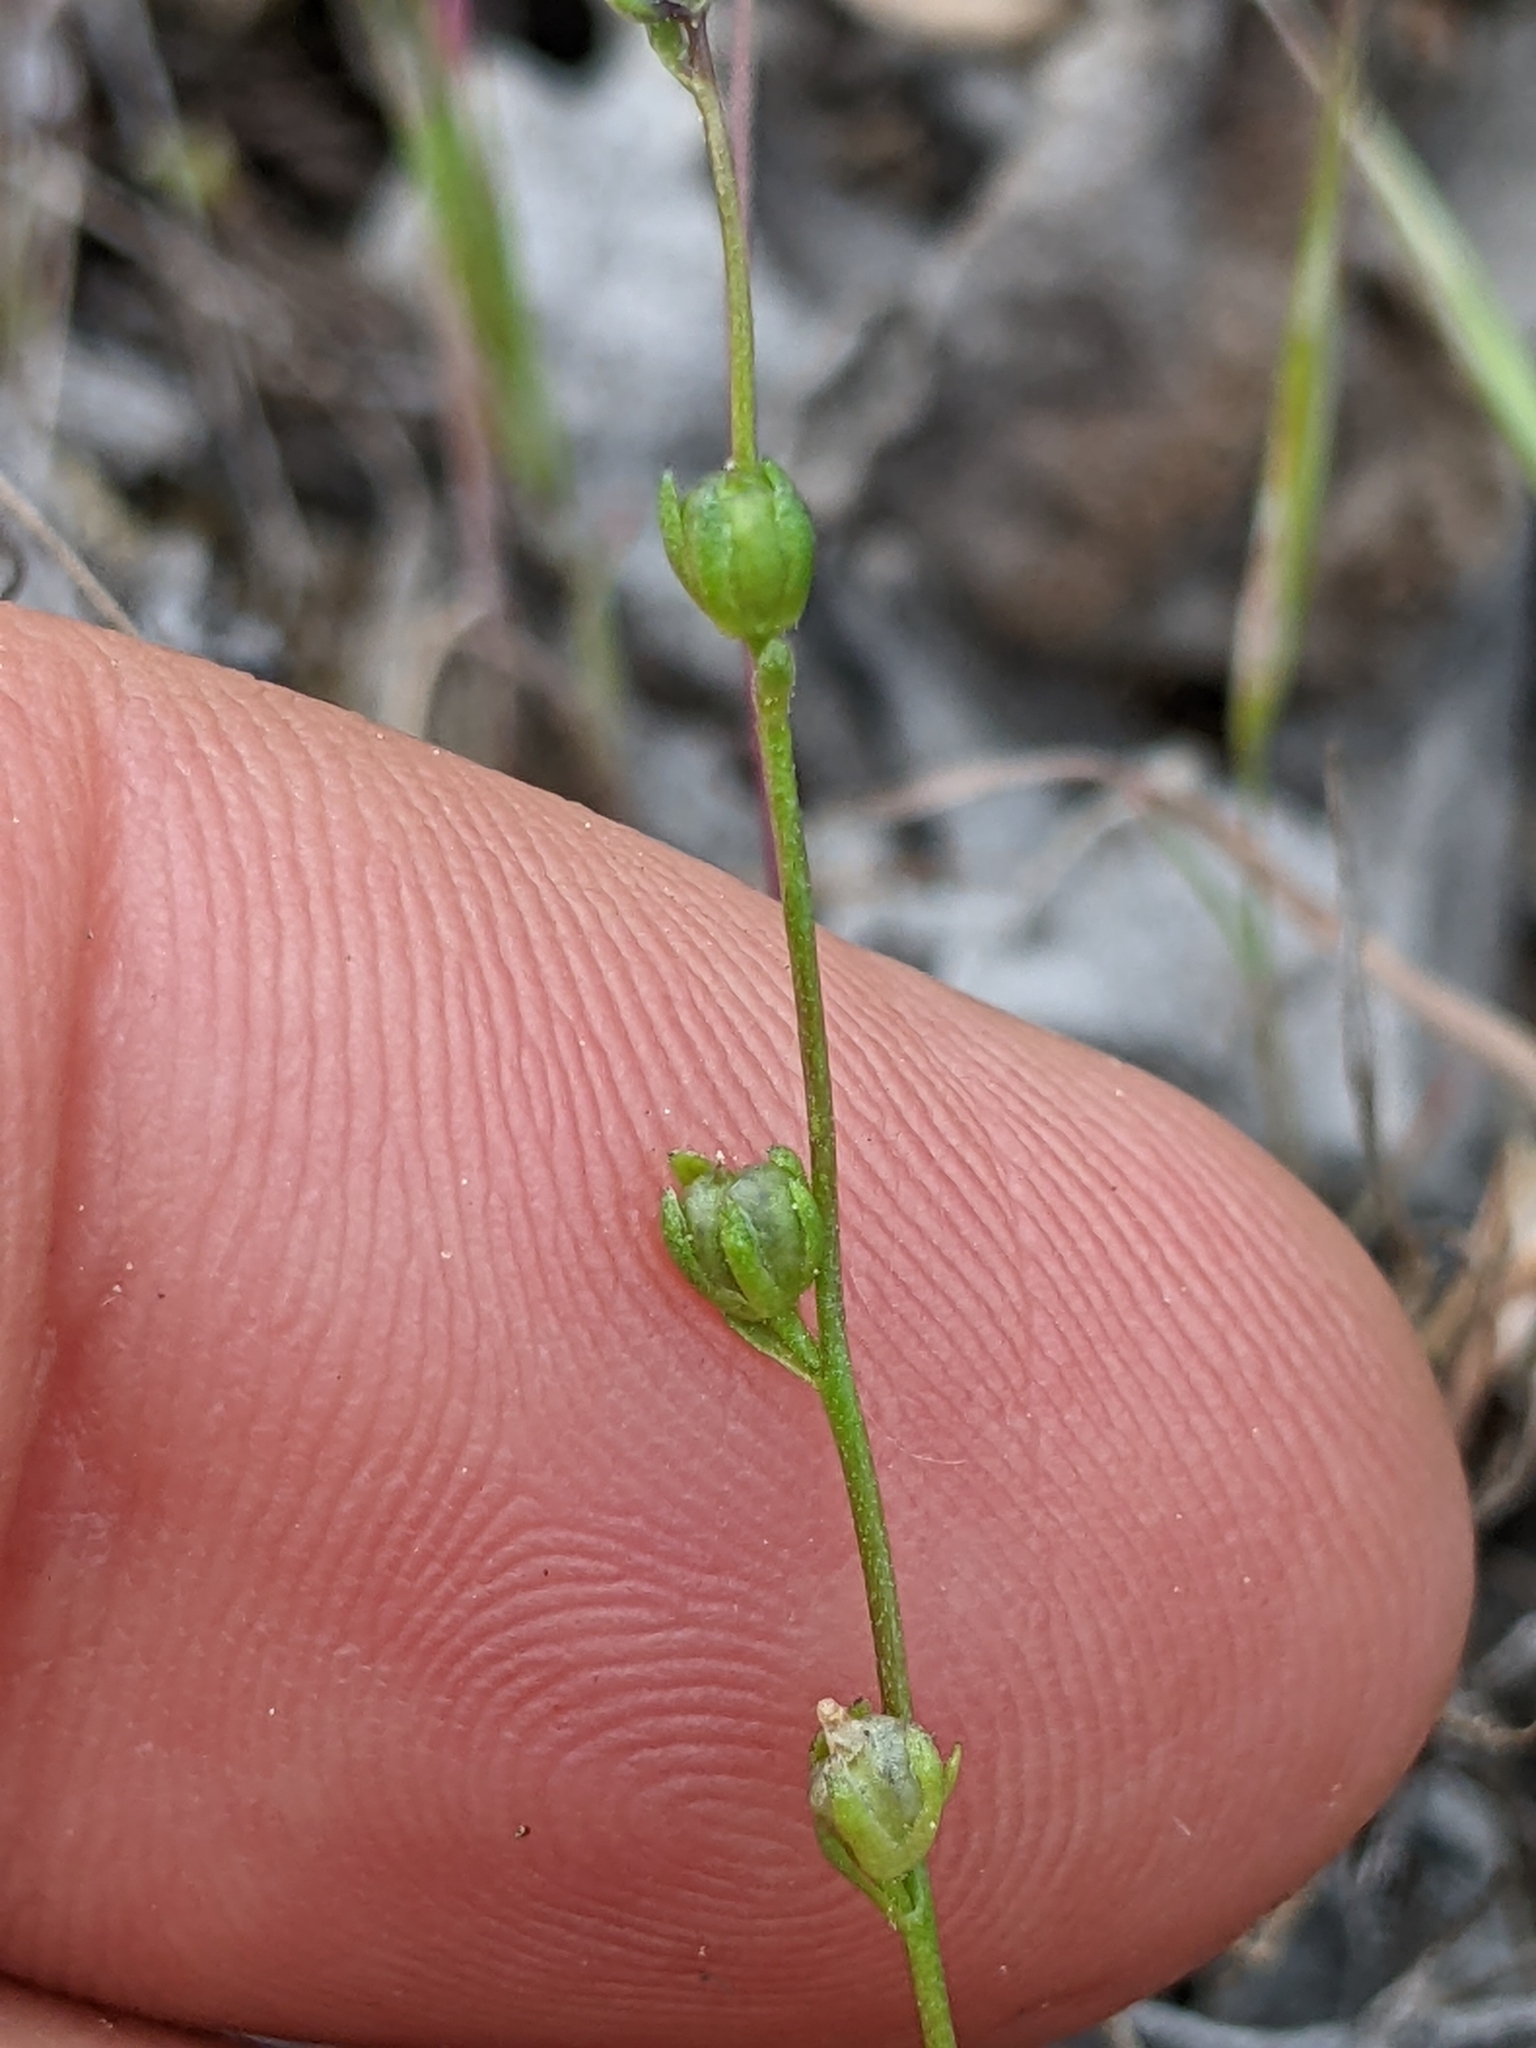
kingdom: Plantae
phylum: Tracheophyta
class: Magnoliopsida
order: Lamiales
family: Plantaginaceae
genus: Nuttallanthus
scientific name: Nuttallanthus texanus
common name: Texas toadflax
